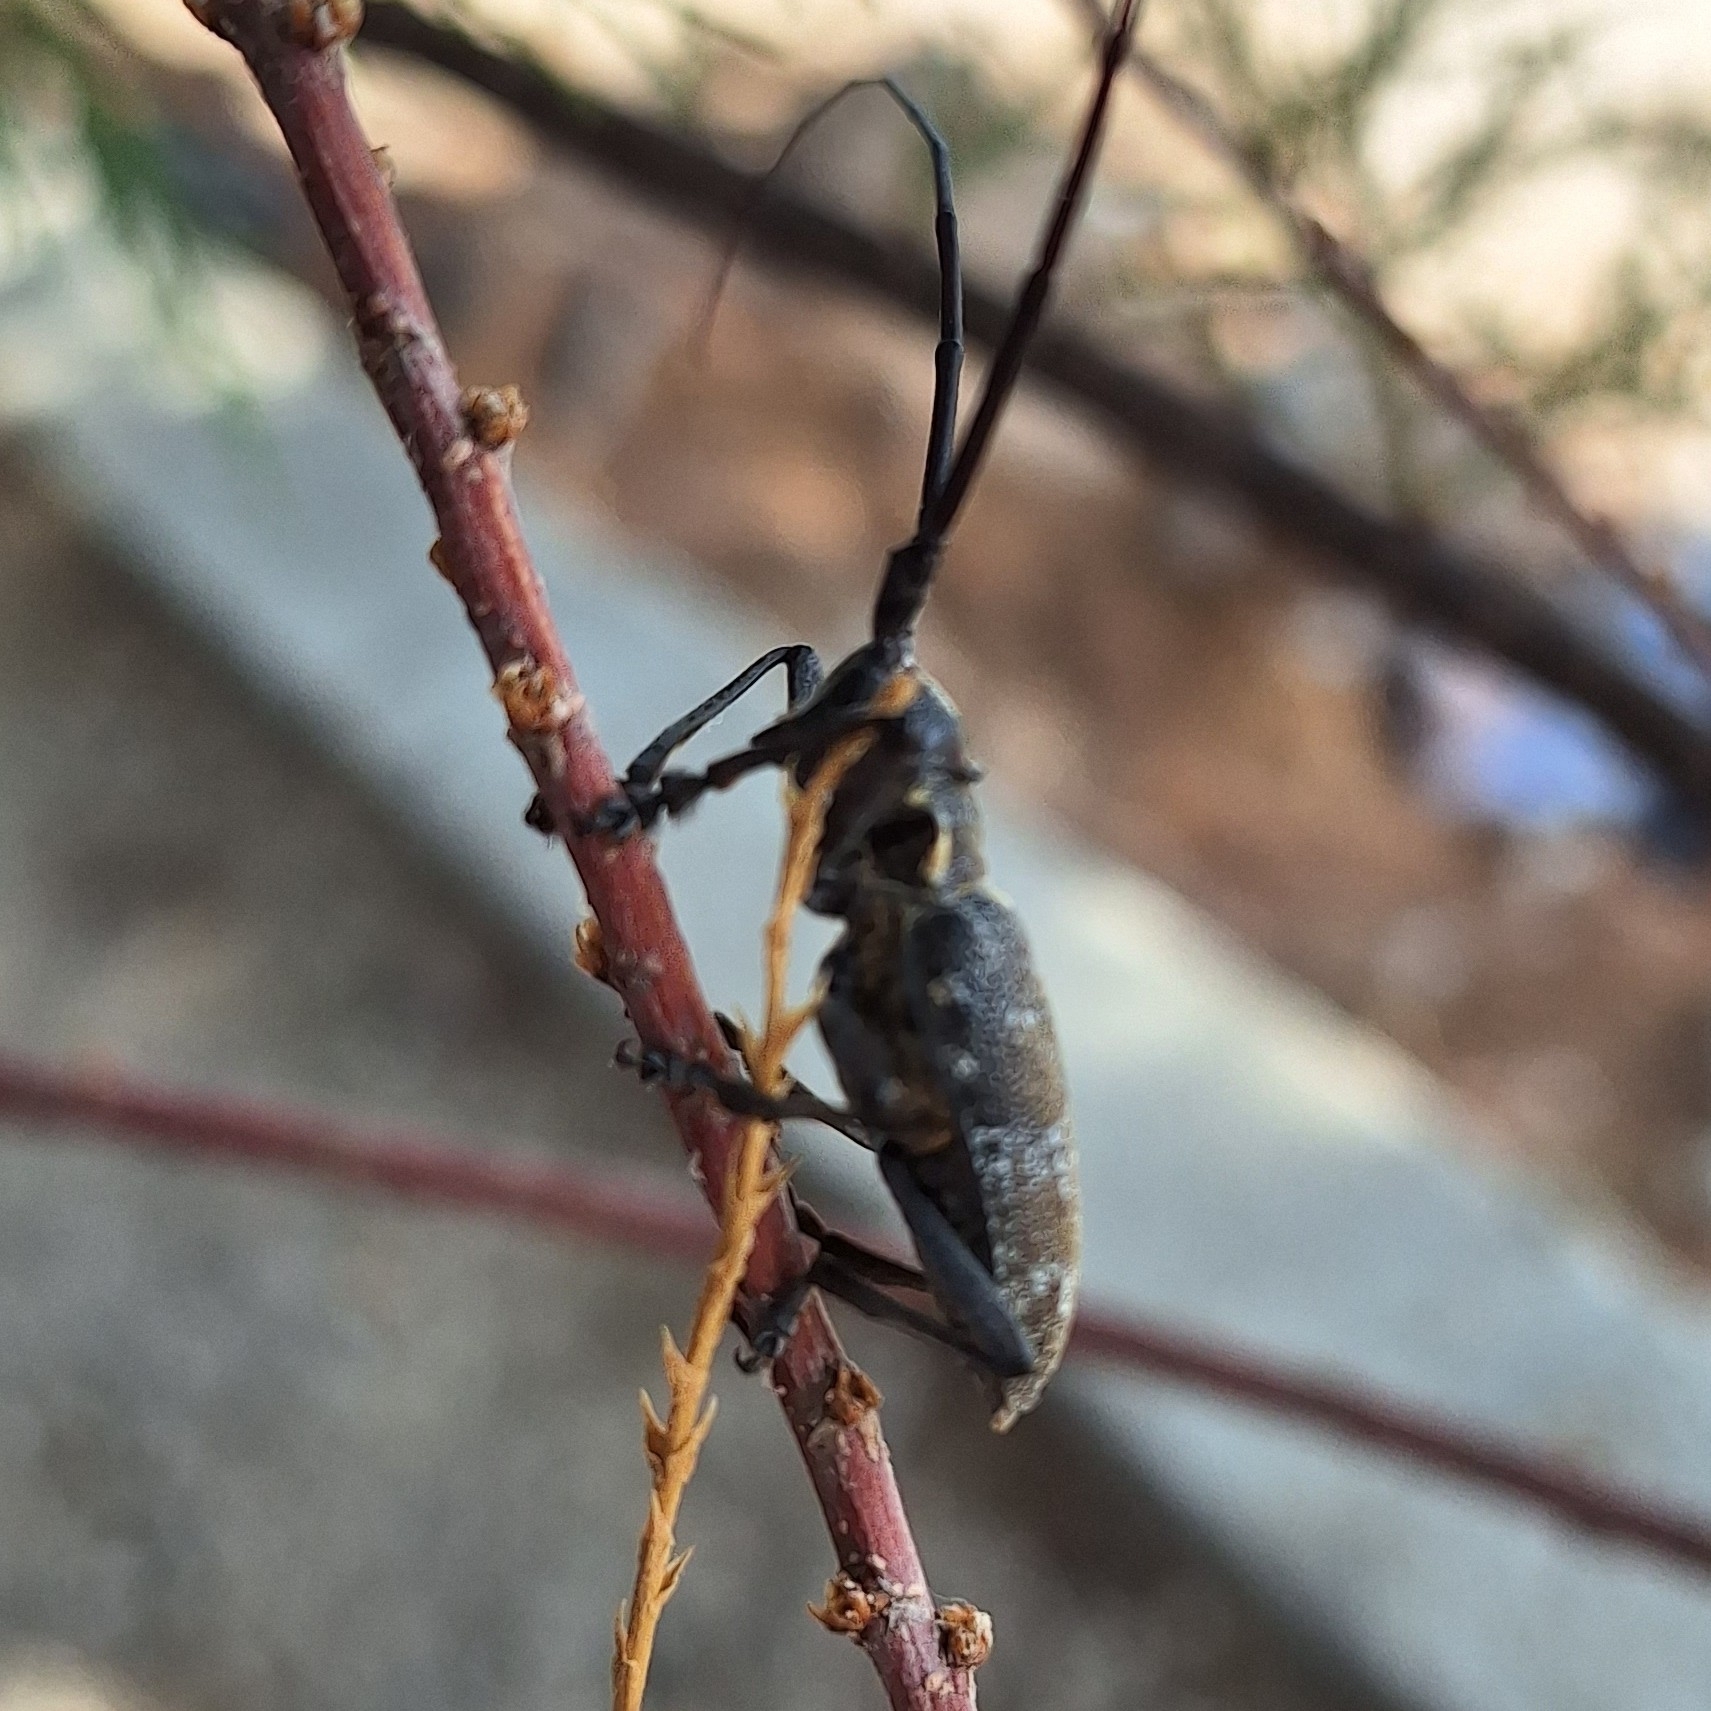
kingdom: Animalia
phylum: Arthropoda
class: Insecta
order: Coleoptera
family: Cerambycidae
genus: Monochamus
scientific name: Monochamus galloprovincialis
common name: Pine sawyer
